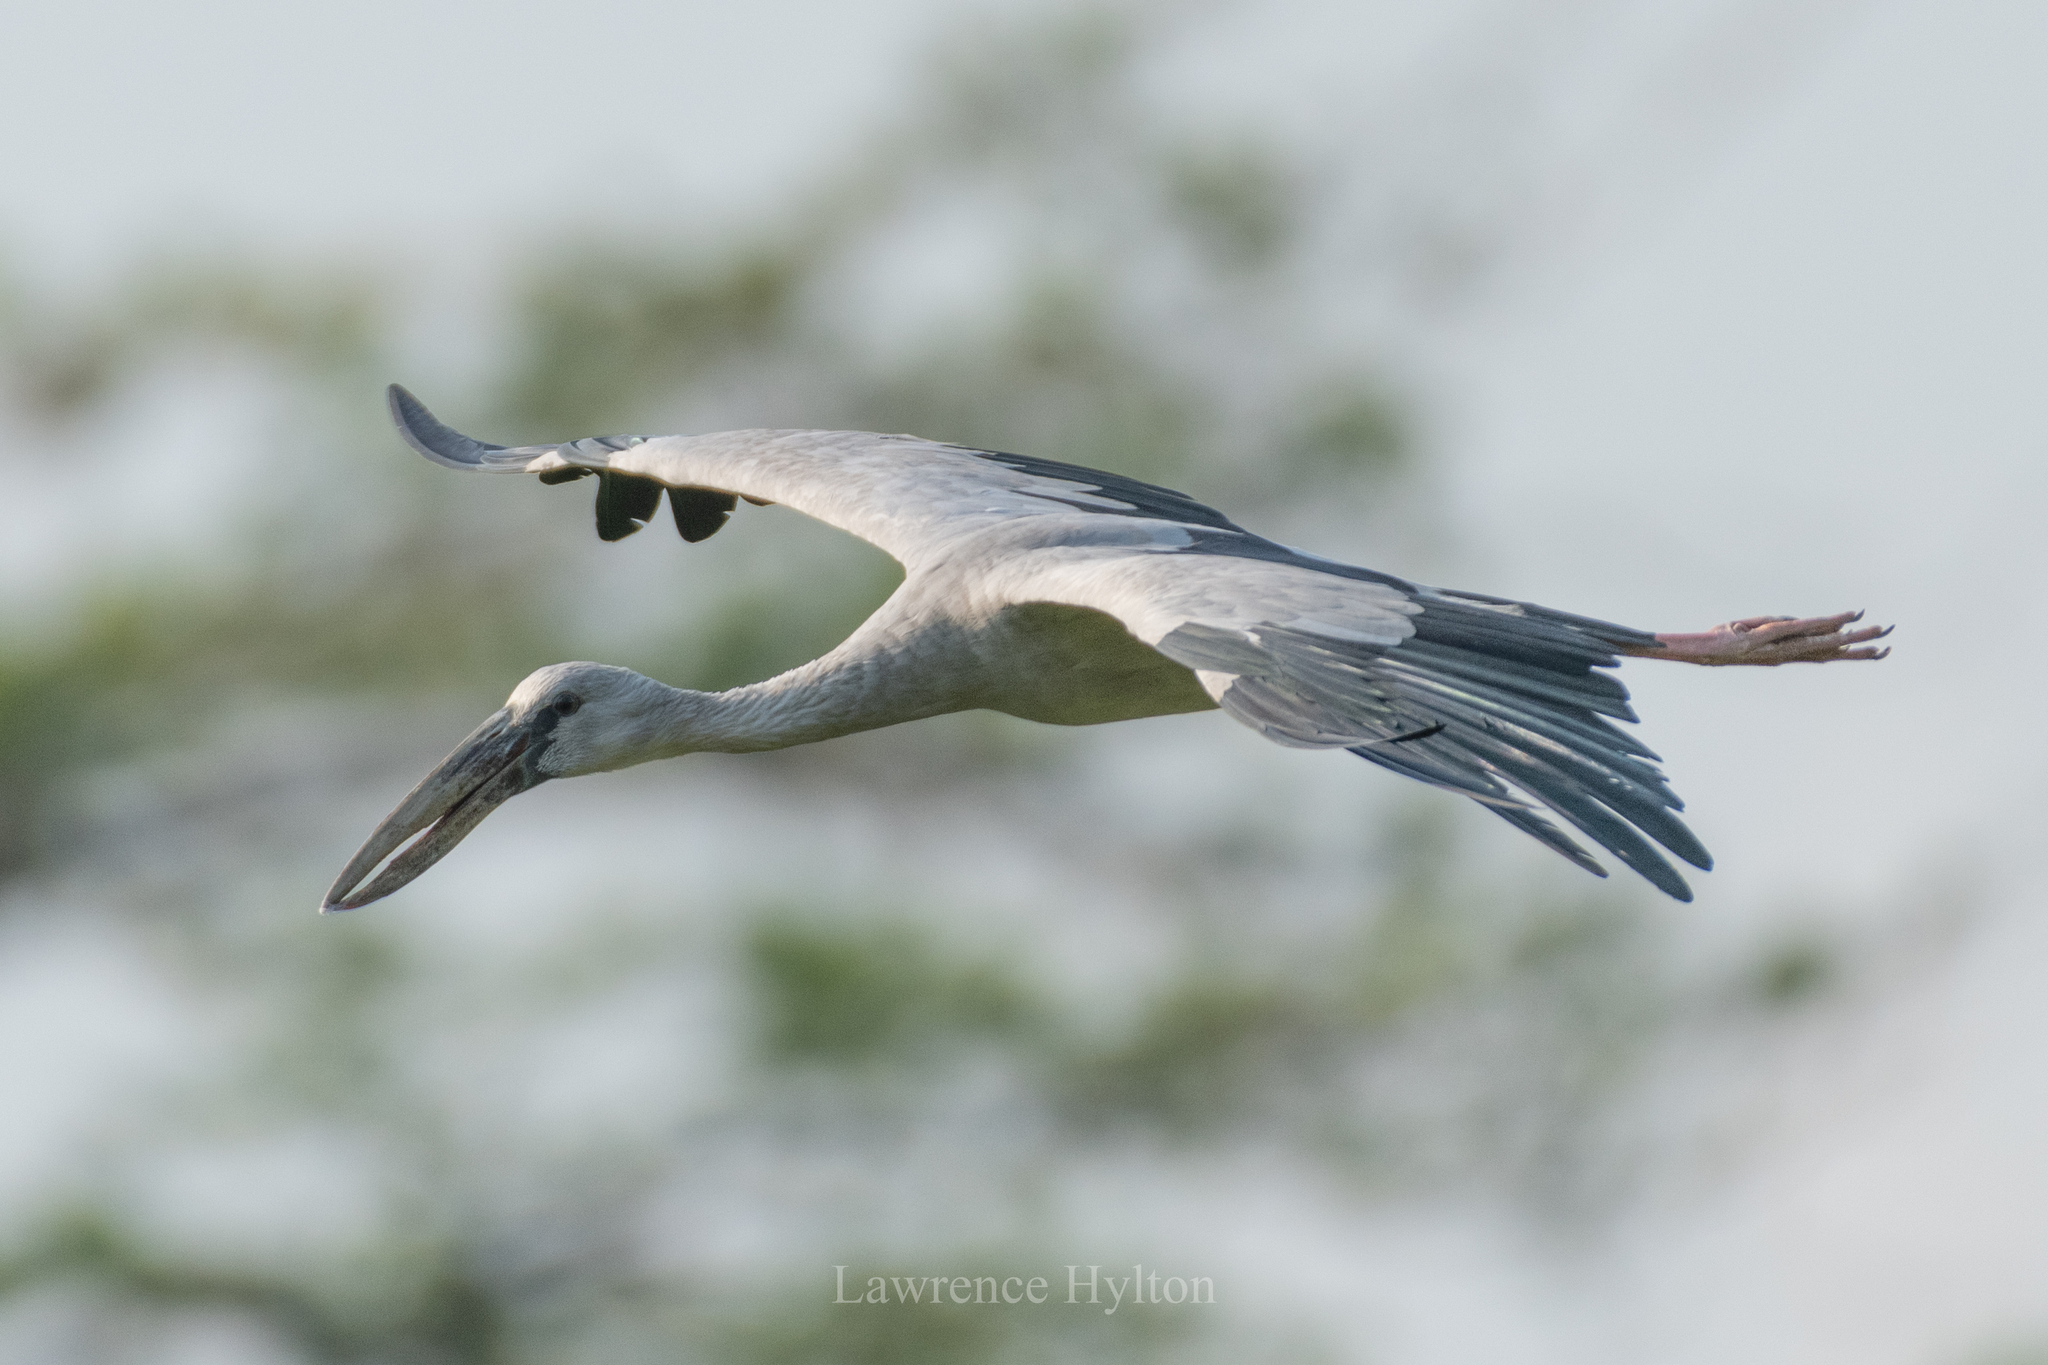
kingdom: Animalia
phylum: Chordata
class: Aves
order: Ciconiiformes
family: Ciconiidae
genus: Anastomus
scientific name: Anastomus oscitans
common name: Asian openbill
